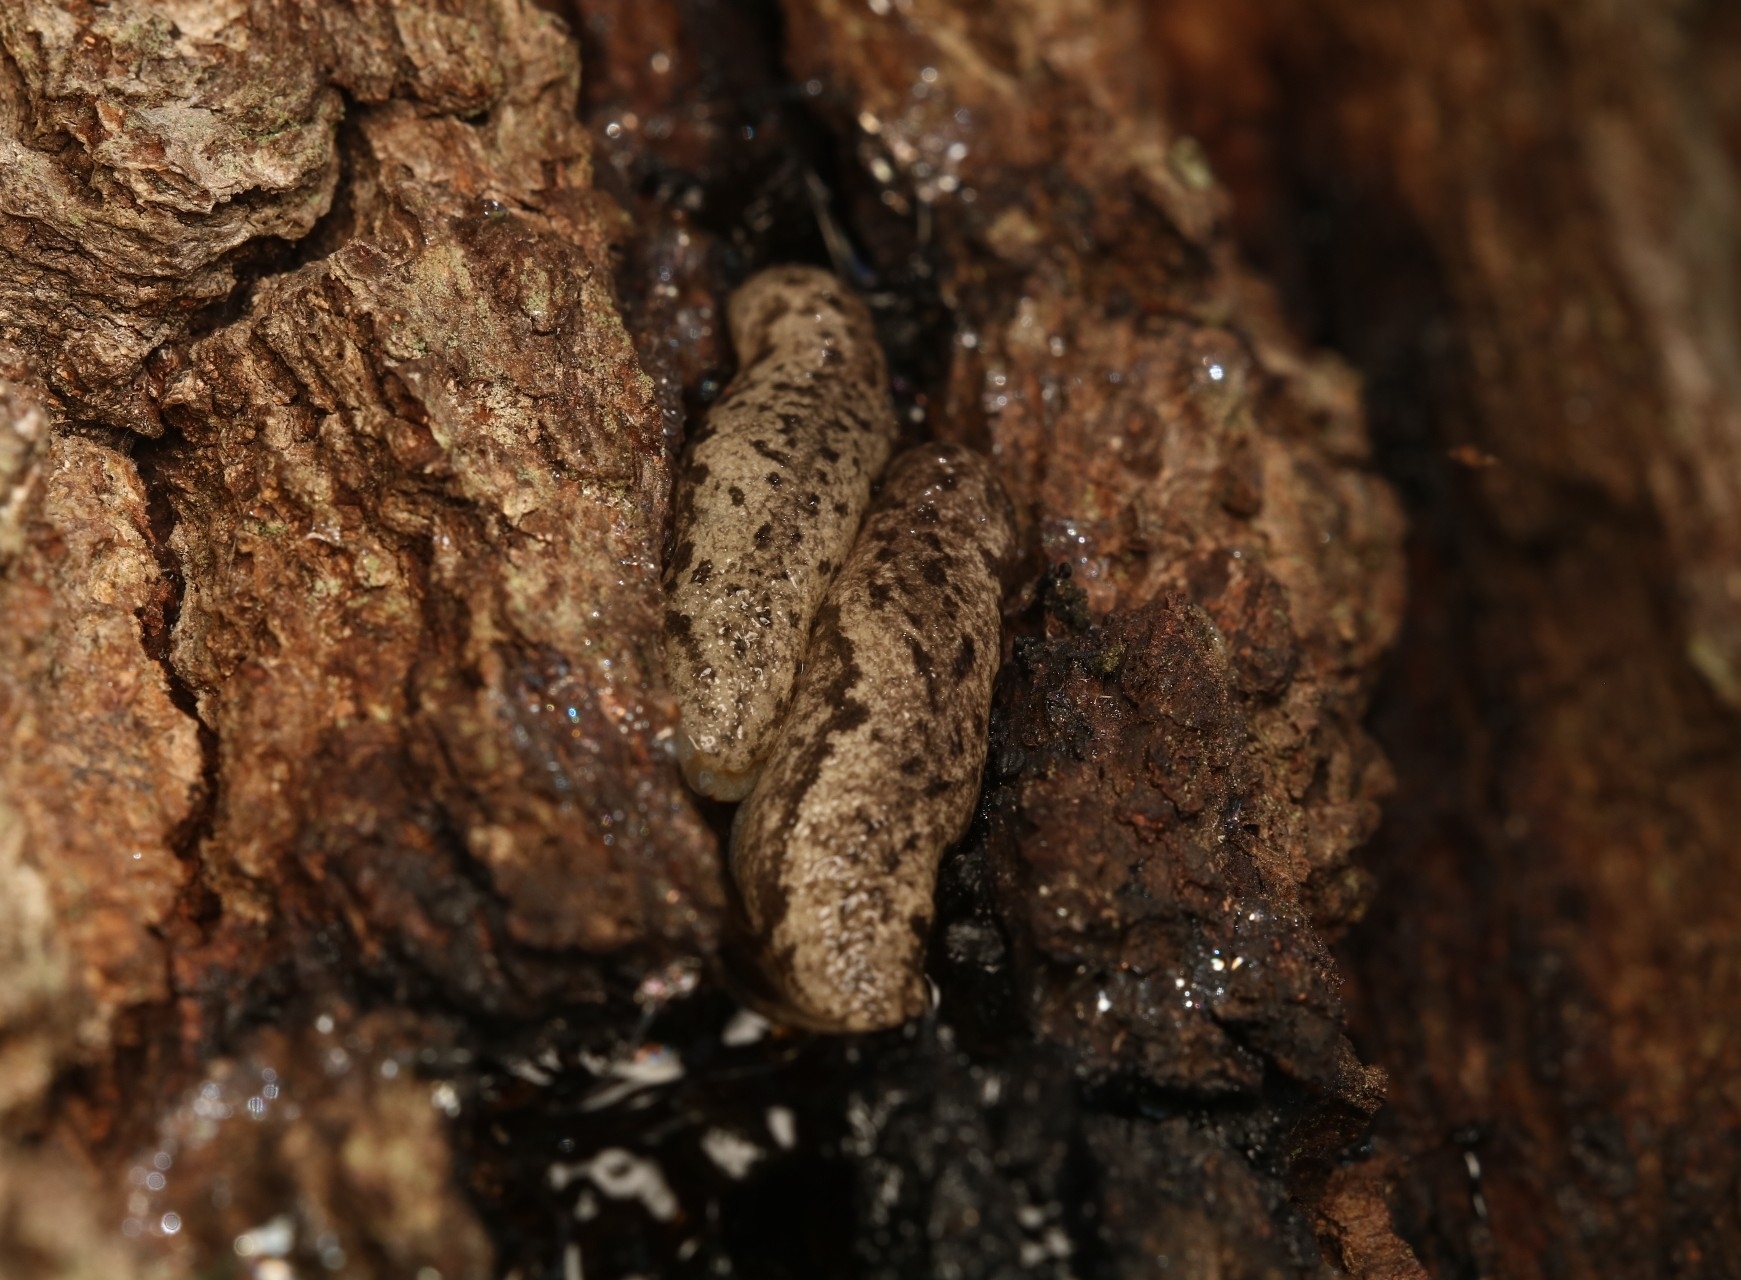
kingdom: Animalia
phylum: Mollusca
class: Gastropoda
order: Stylommatophora
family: Philomycidae
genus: Megapallifera
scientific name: Megapallifera mutabilis
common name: Changeable mantleslug
